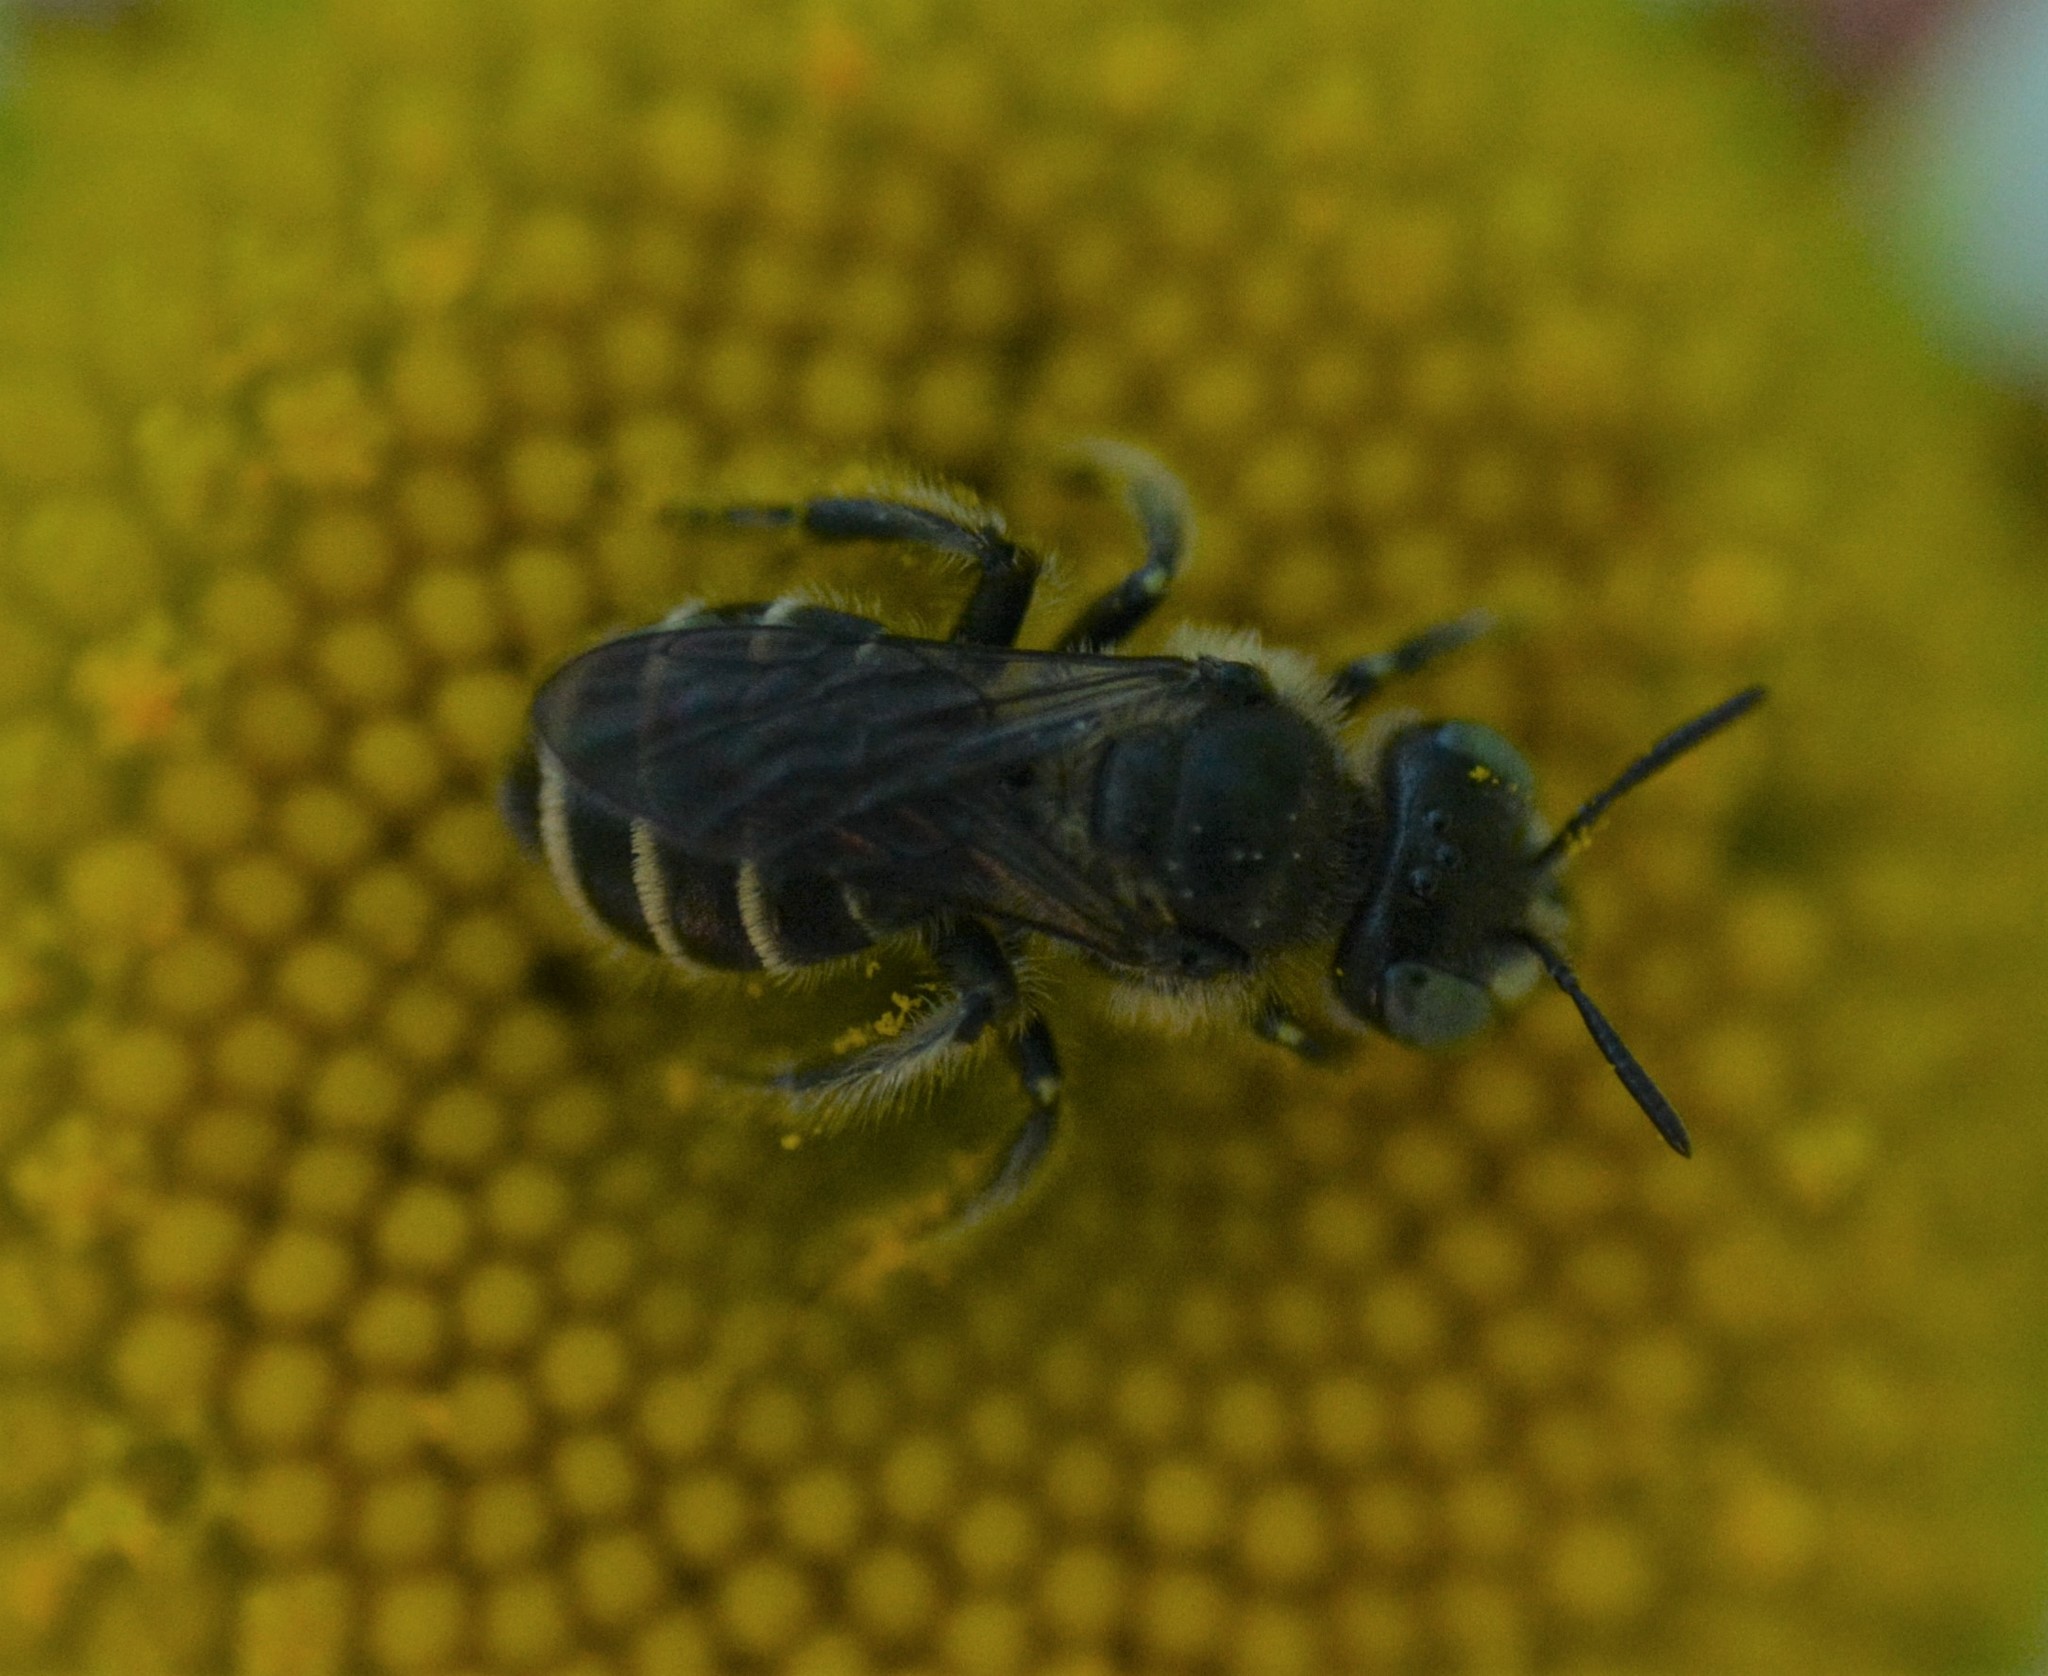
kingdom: Animalia
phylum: Arthropoda
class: Insecta
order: Hymenoptera
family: Andrenidae
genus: Calliopsis
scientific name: Calliopsis andreniformis
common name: Eastern calliopsis bee
